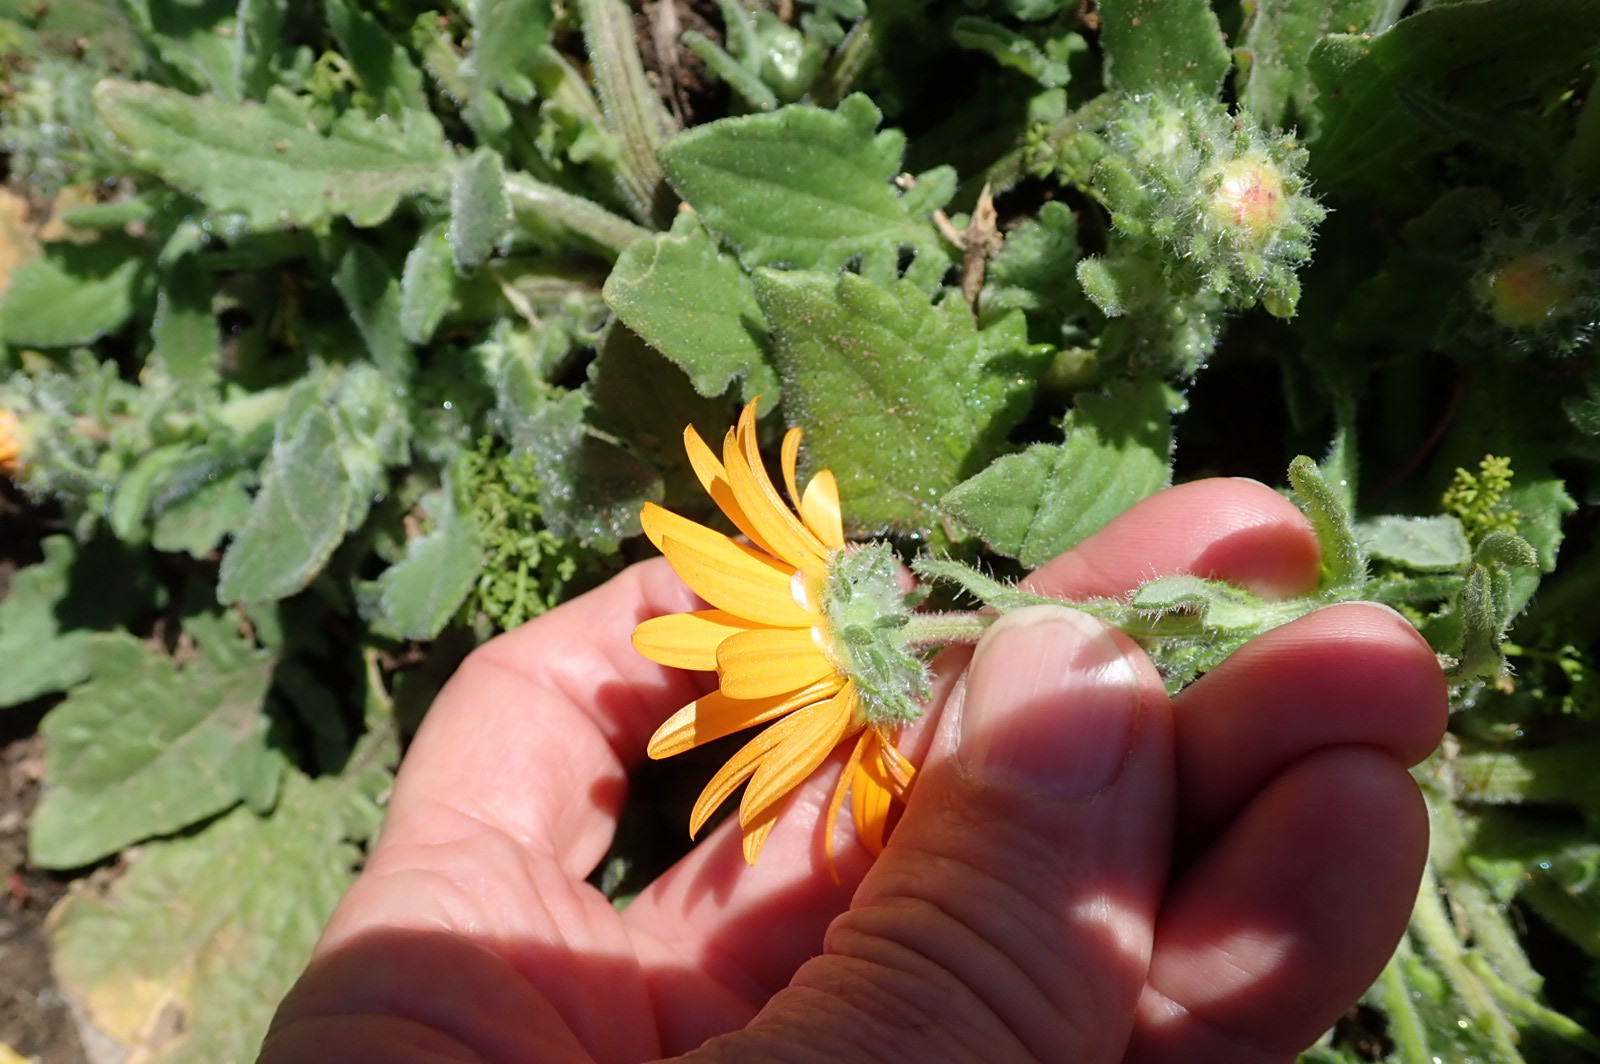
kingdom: Plantae
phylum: Tracheophyta
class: Magnoliopsida
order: Asterales
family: Asteraceae
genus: Arctotis
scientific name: Arctotis hirsuta
